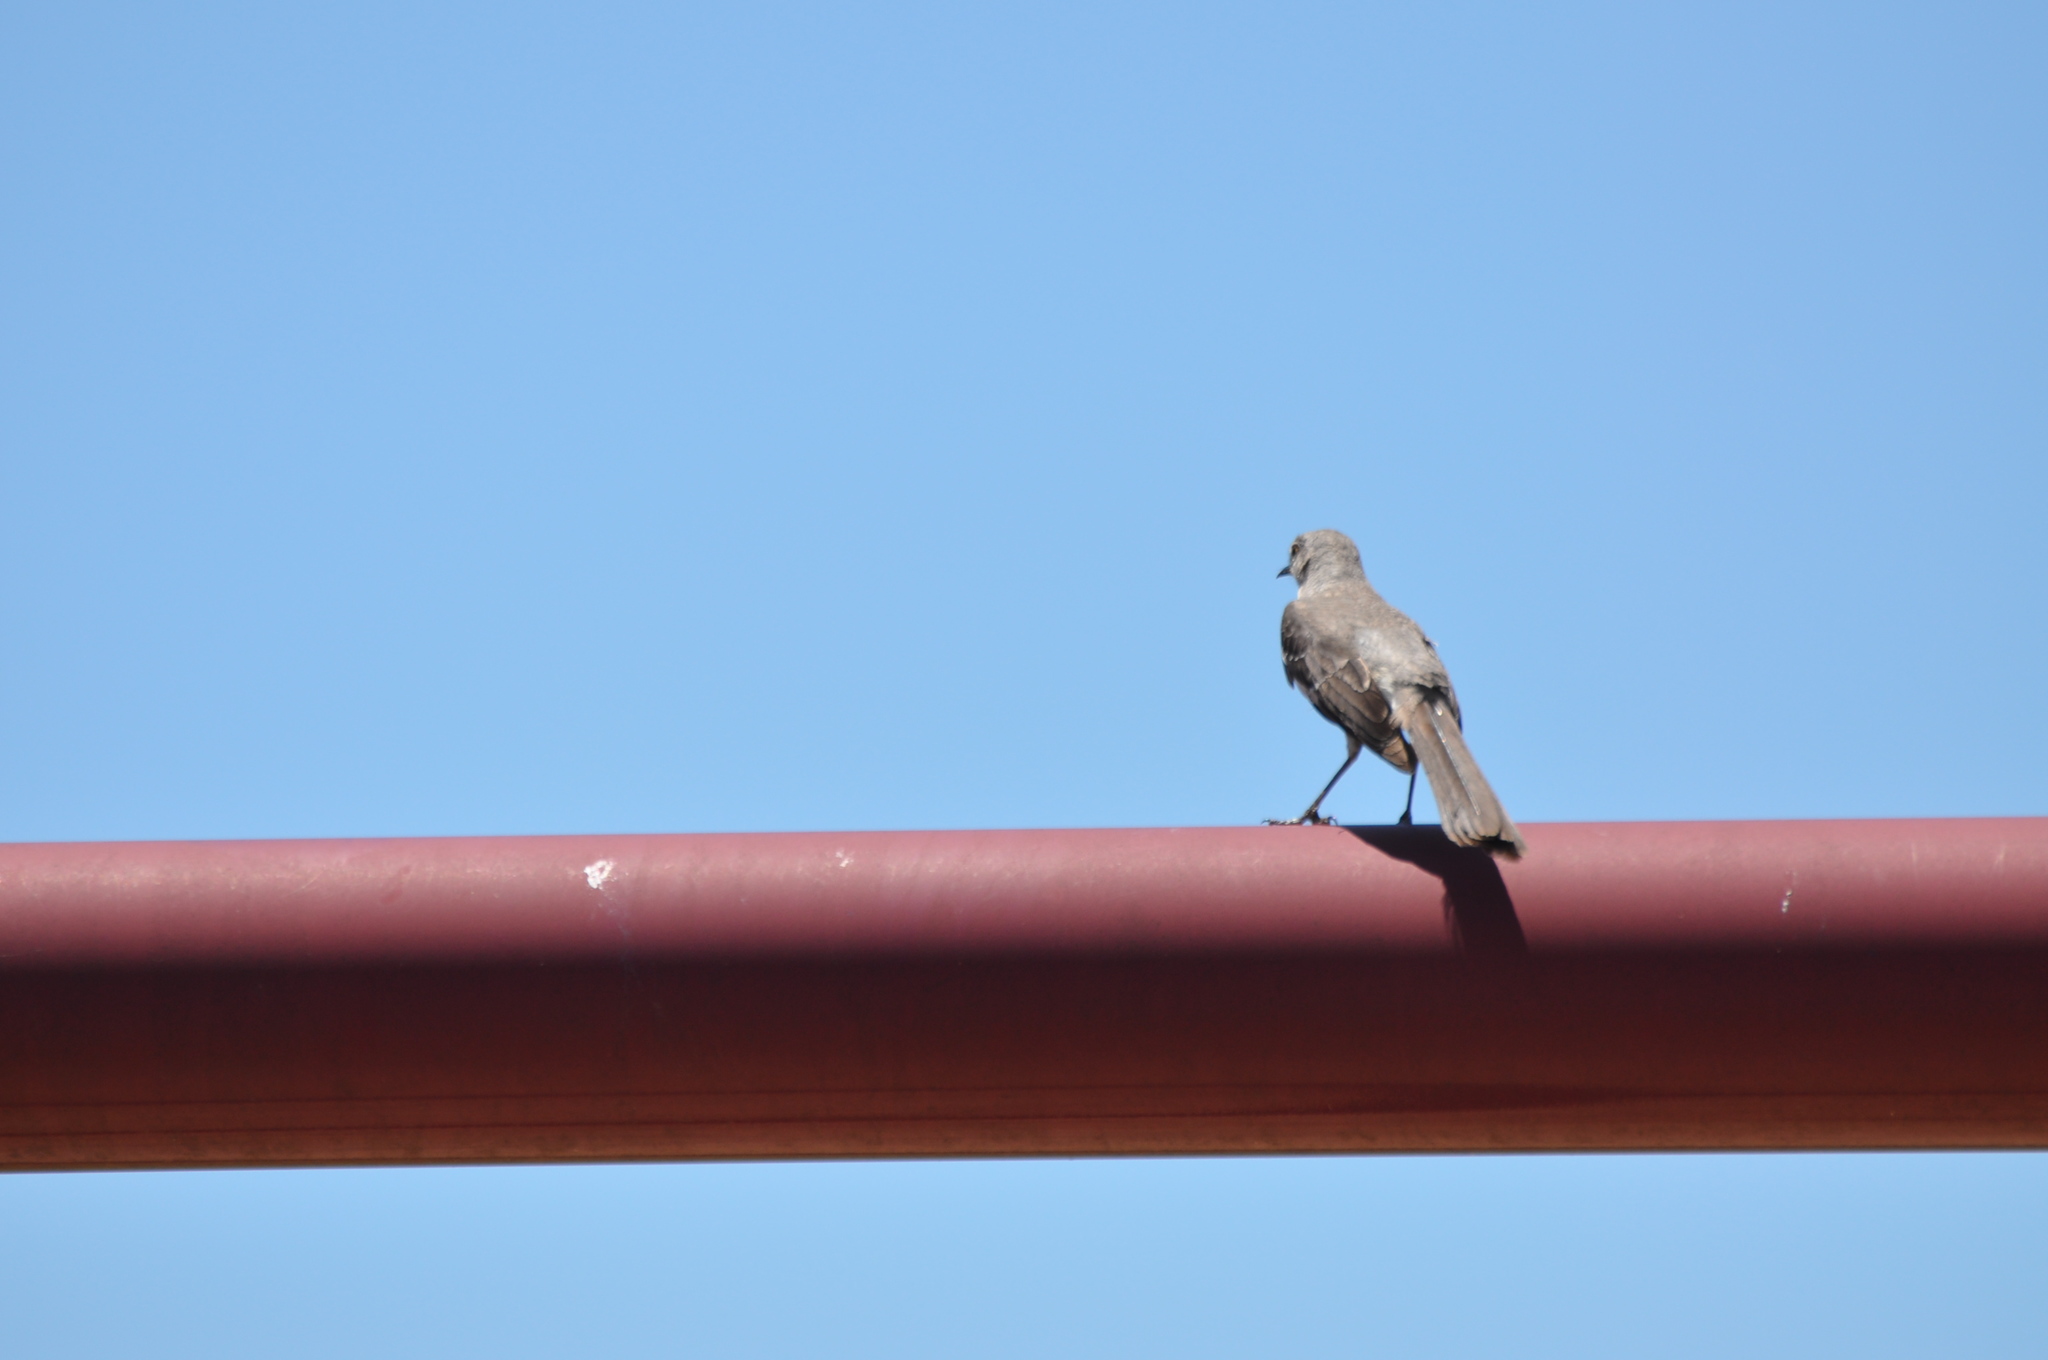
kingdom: Animalia
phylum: Chordata
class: Aves
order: Passeriformes
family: Mimidae
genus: Mimus
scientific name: Mimus polyglottos
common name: Northern mockingbird
